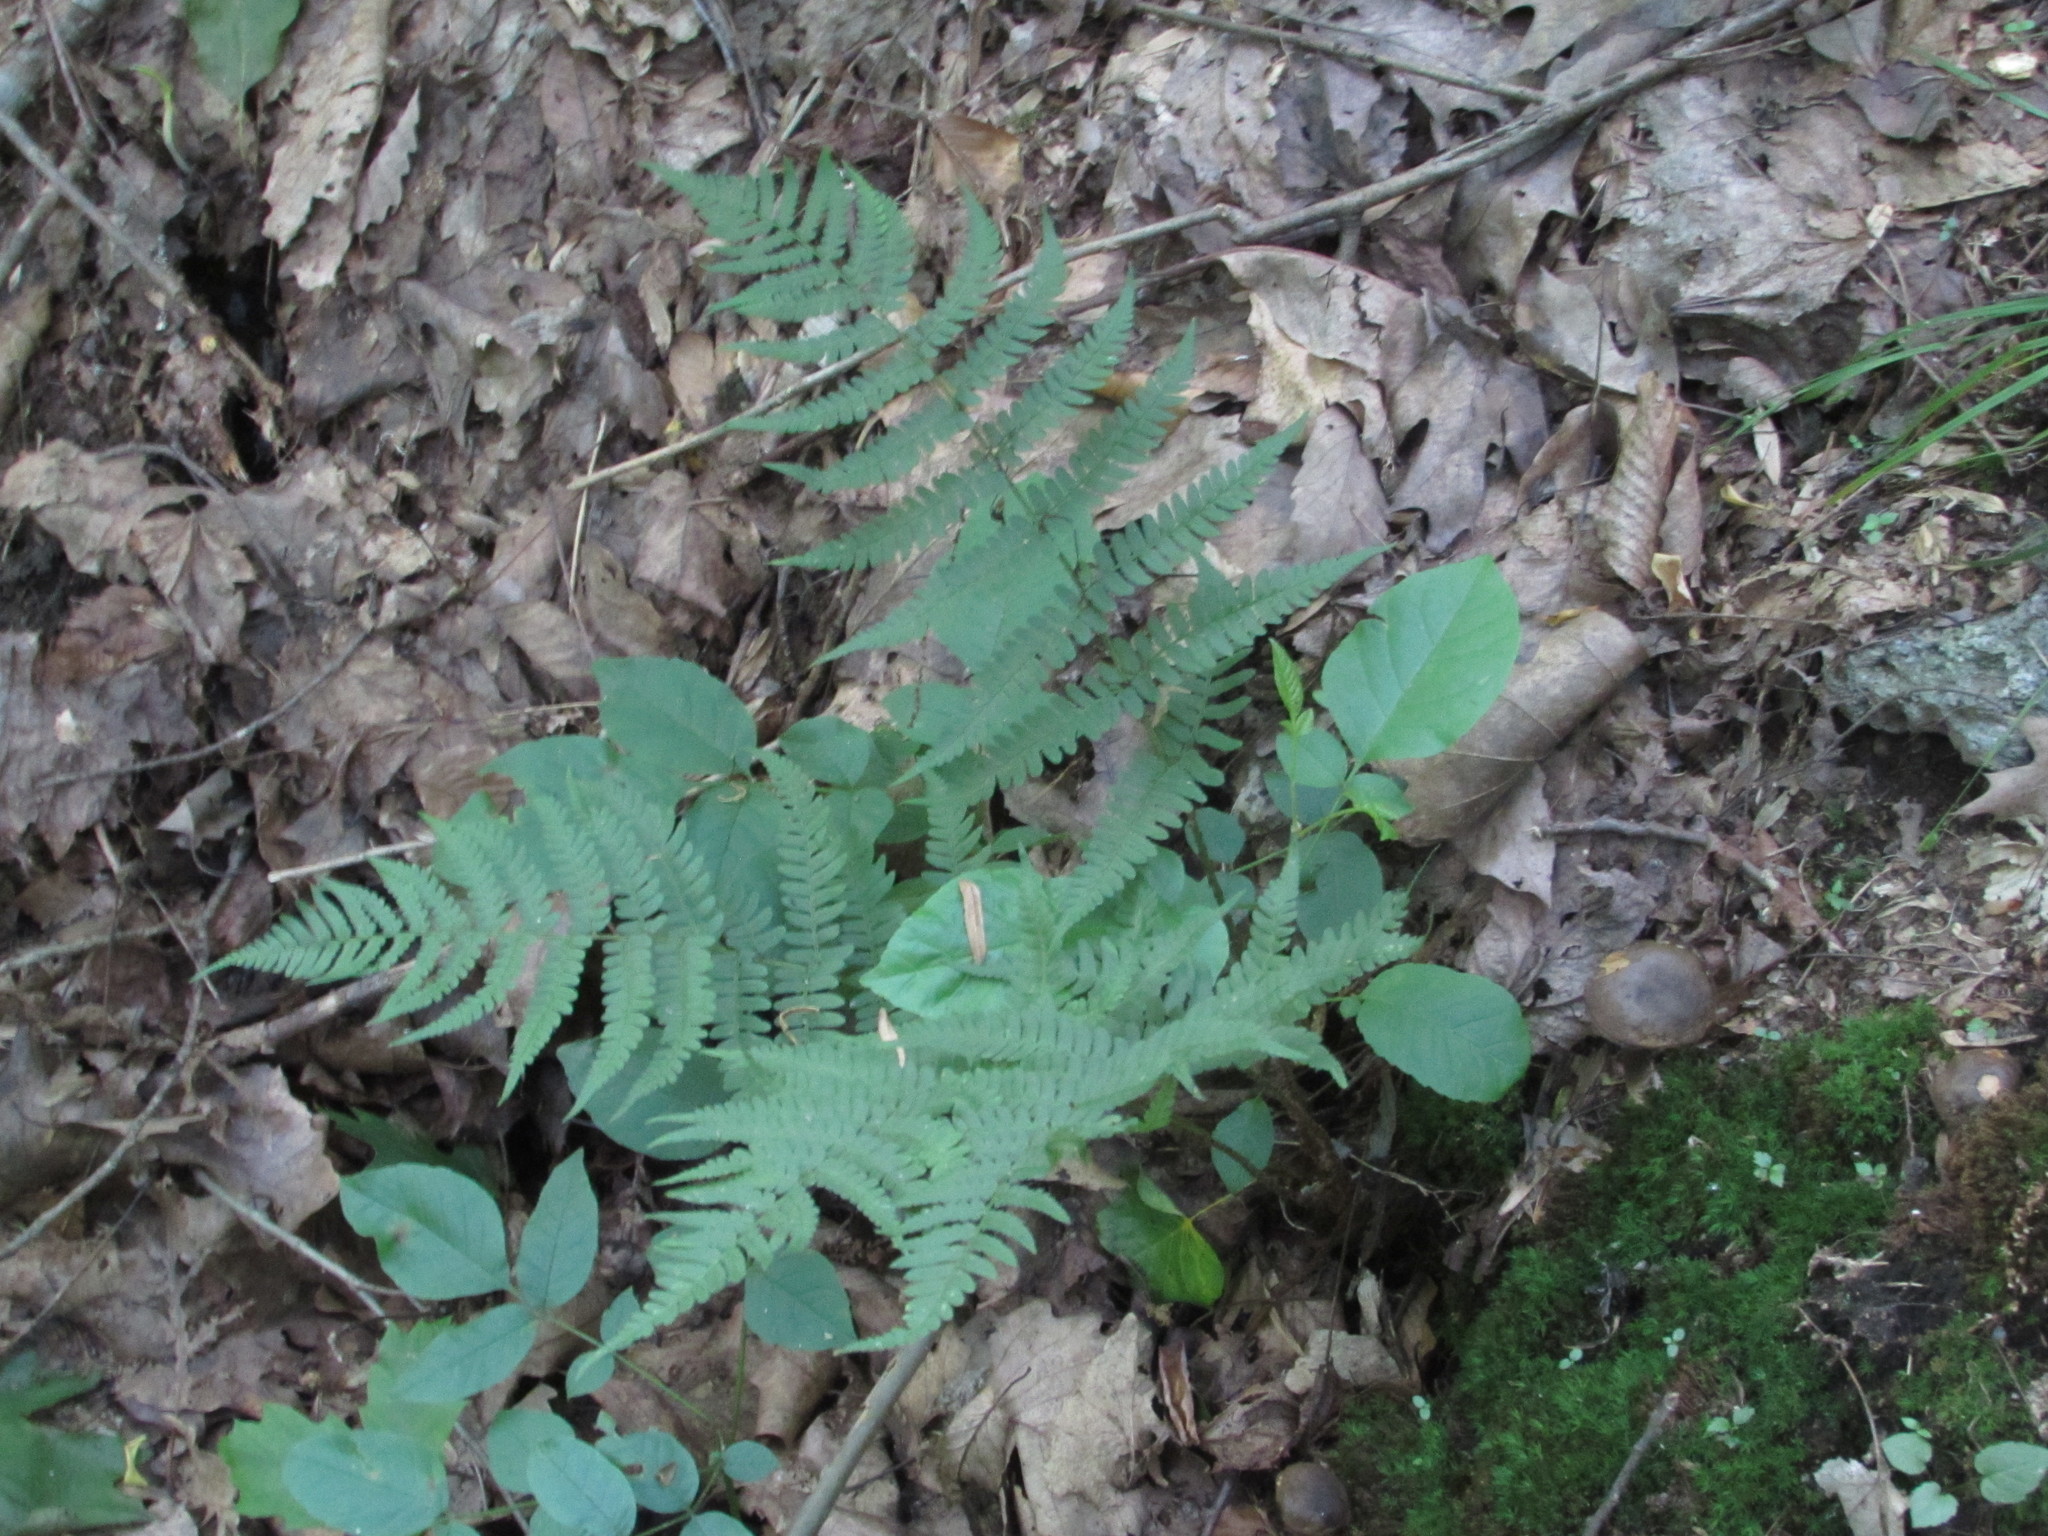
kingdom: Plantae
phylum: Tracheophyta
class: Polypodiopsida
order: Polypodiales
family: Dryopteridaceae
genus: Dryopteris
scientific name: Dryopteris marginalis
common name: Marginal wood fern
